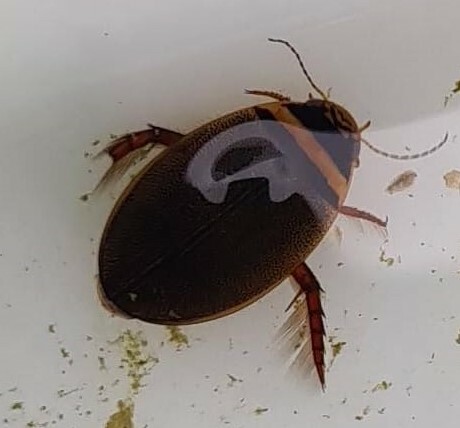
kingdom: Animalia
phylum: Arthropoda
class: Insecta
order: Coleoptera
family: Dytiscidae
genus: Graphoderus
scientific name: Graphoderus cinereus
